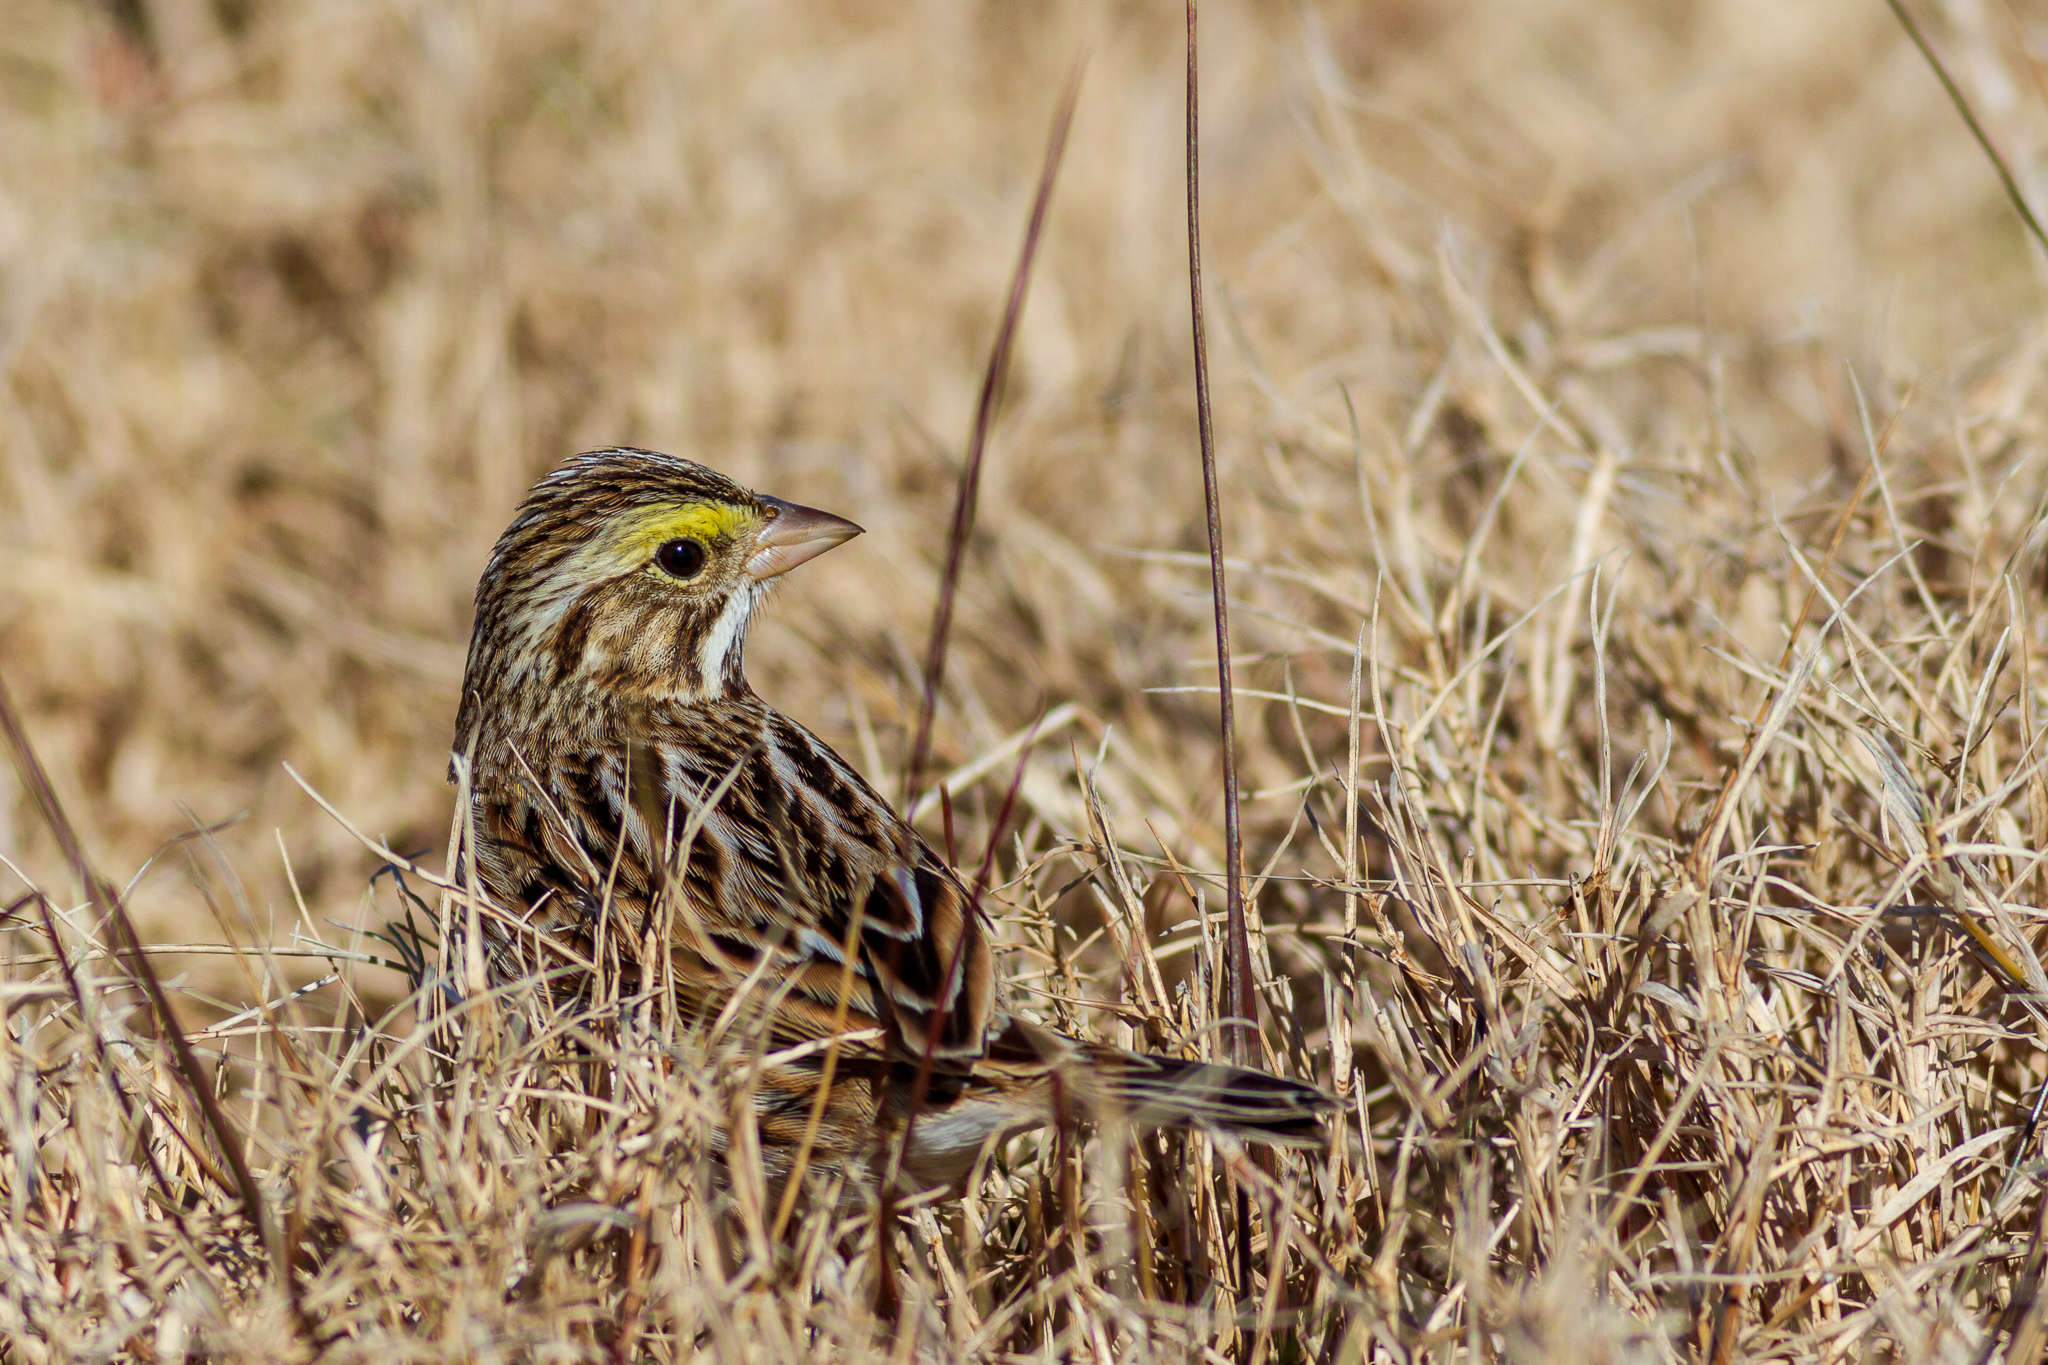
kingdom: Animalia
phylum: Chordata
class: Aves
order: Passeriformes
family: Passerellidae
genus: Passerculus
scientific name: Passerculus sandwichensis
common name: Savannah sparrow
